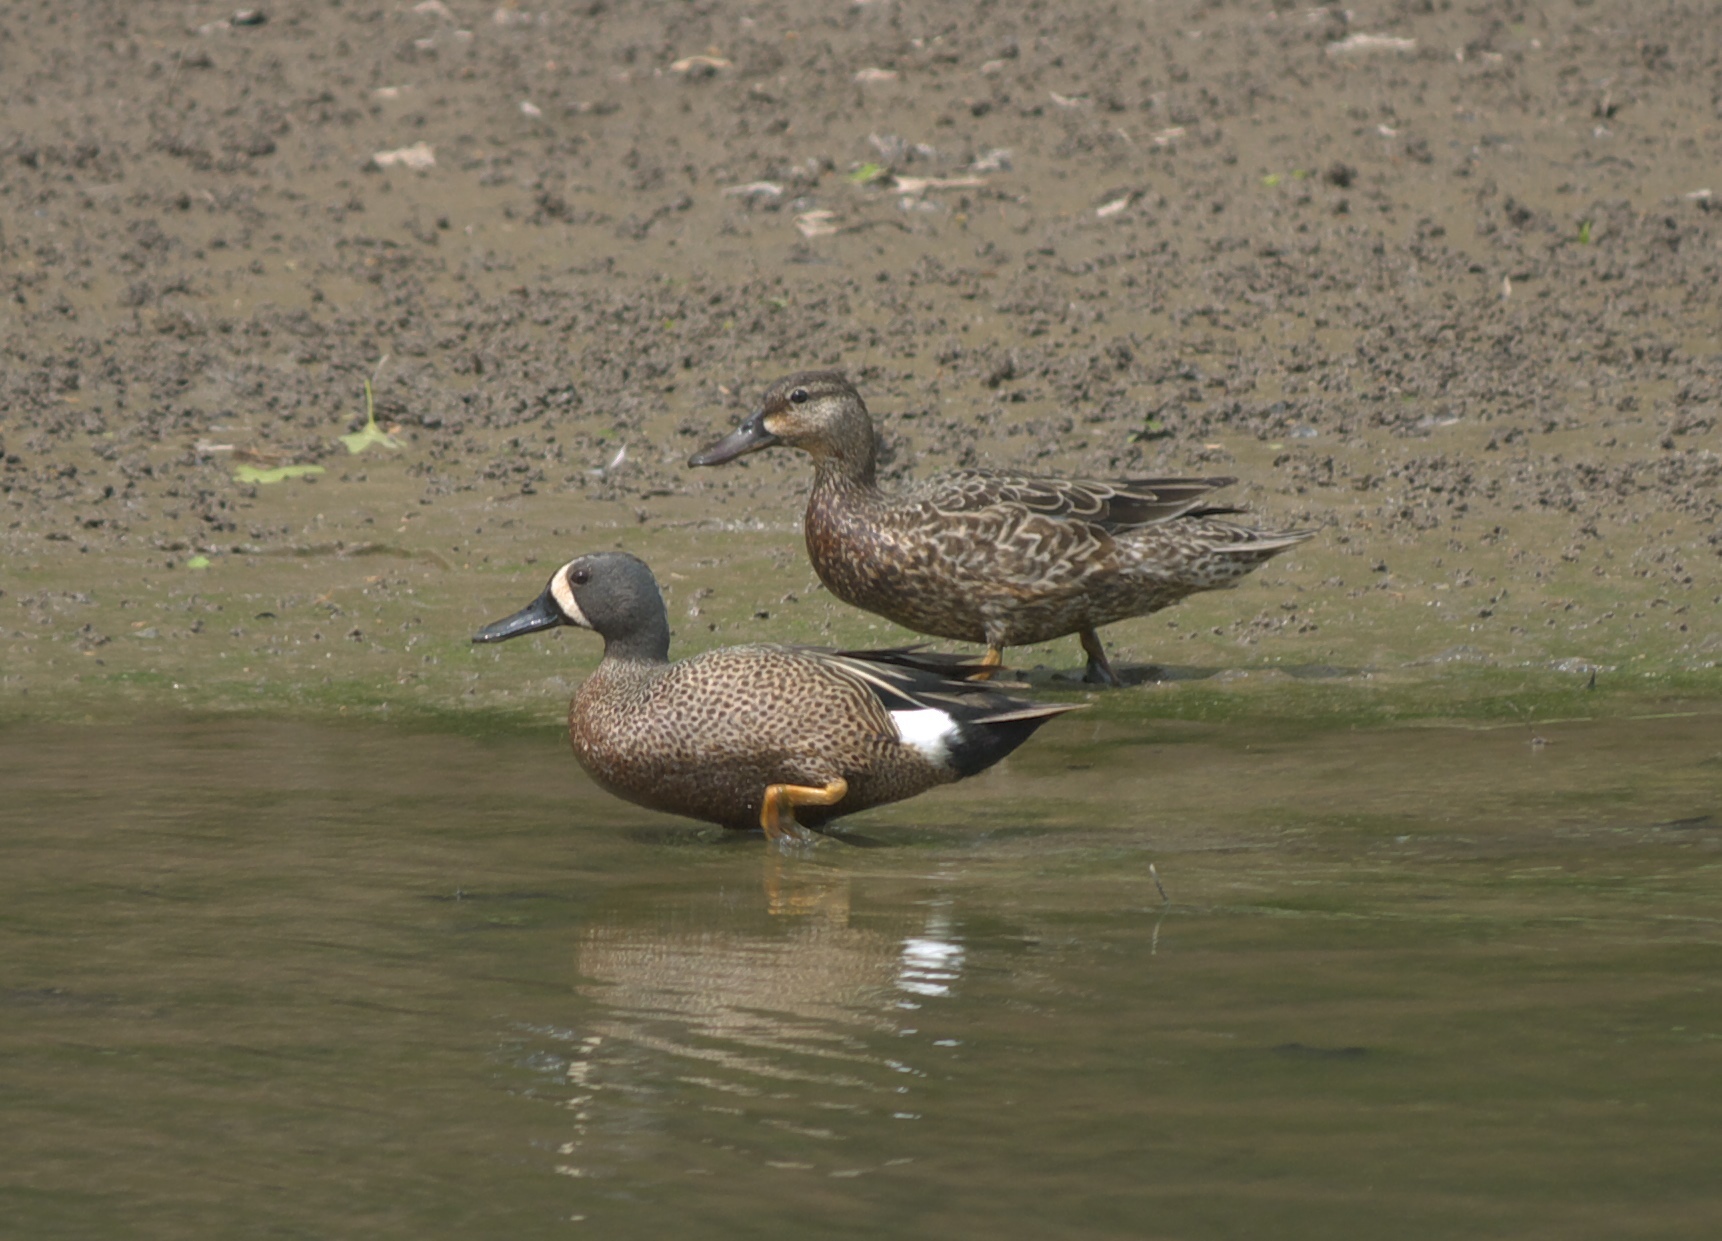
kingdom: Animalia
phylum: Chordata
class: Aves
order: Anseriformes
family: Anatidae
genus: Spatula
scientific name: Spatula discors
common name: Blue-winged teal
